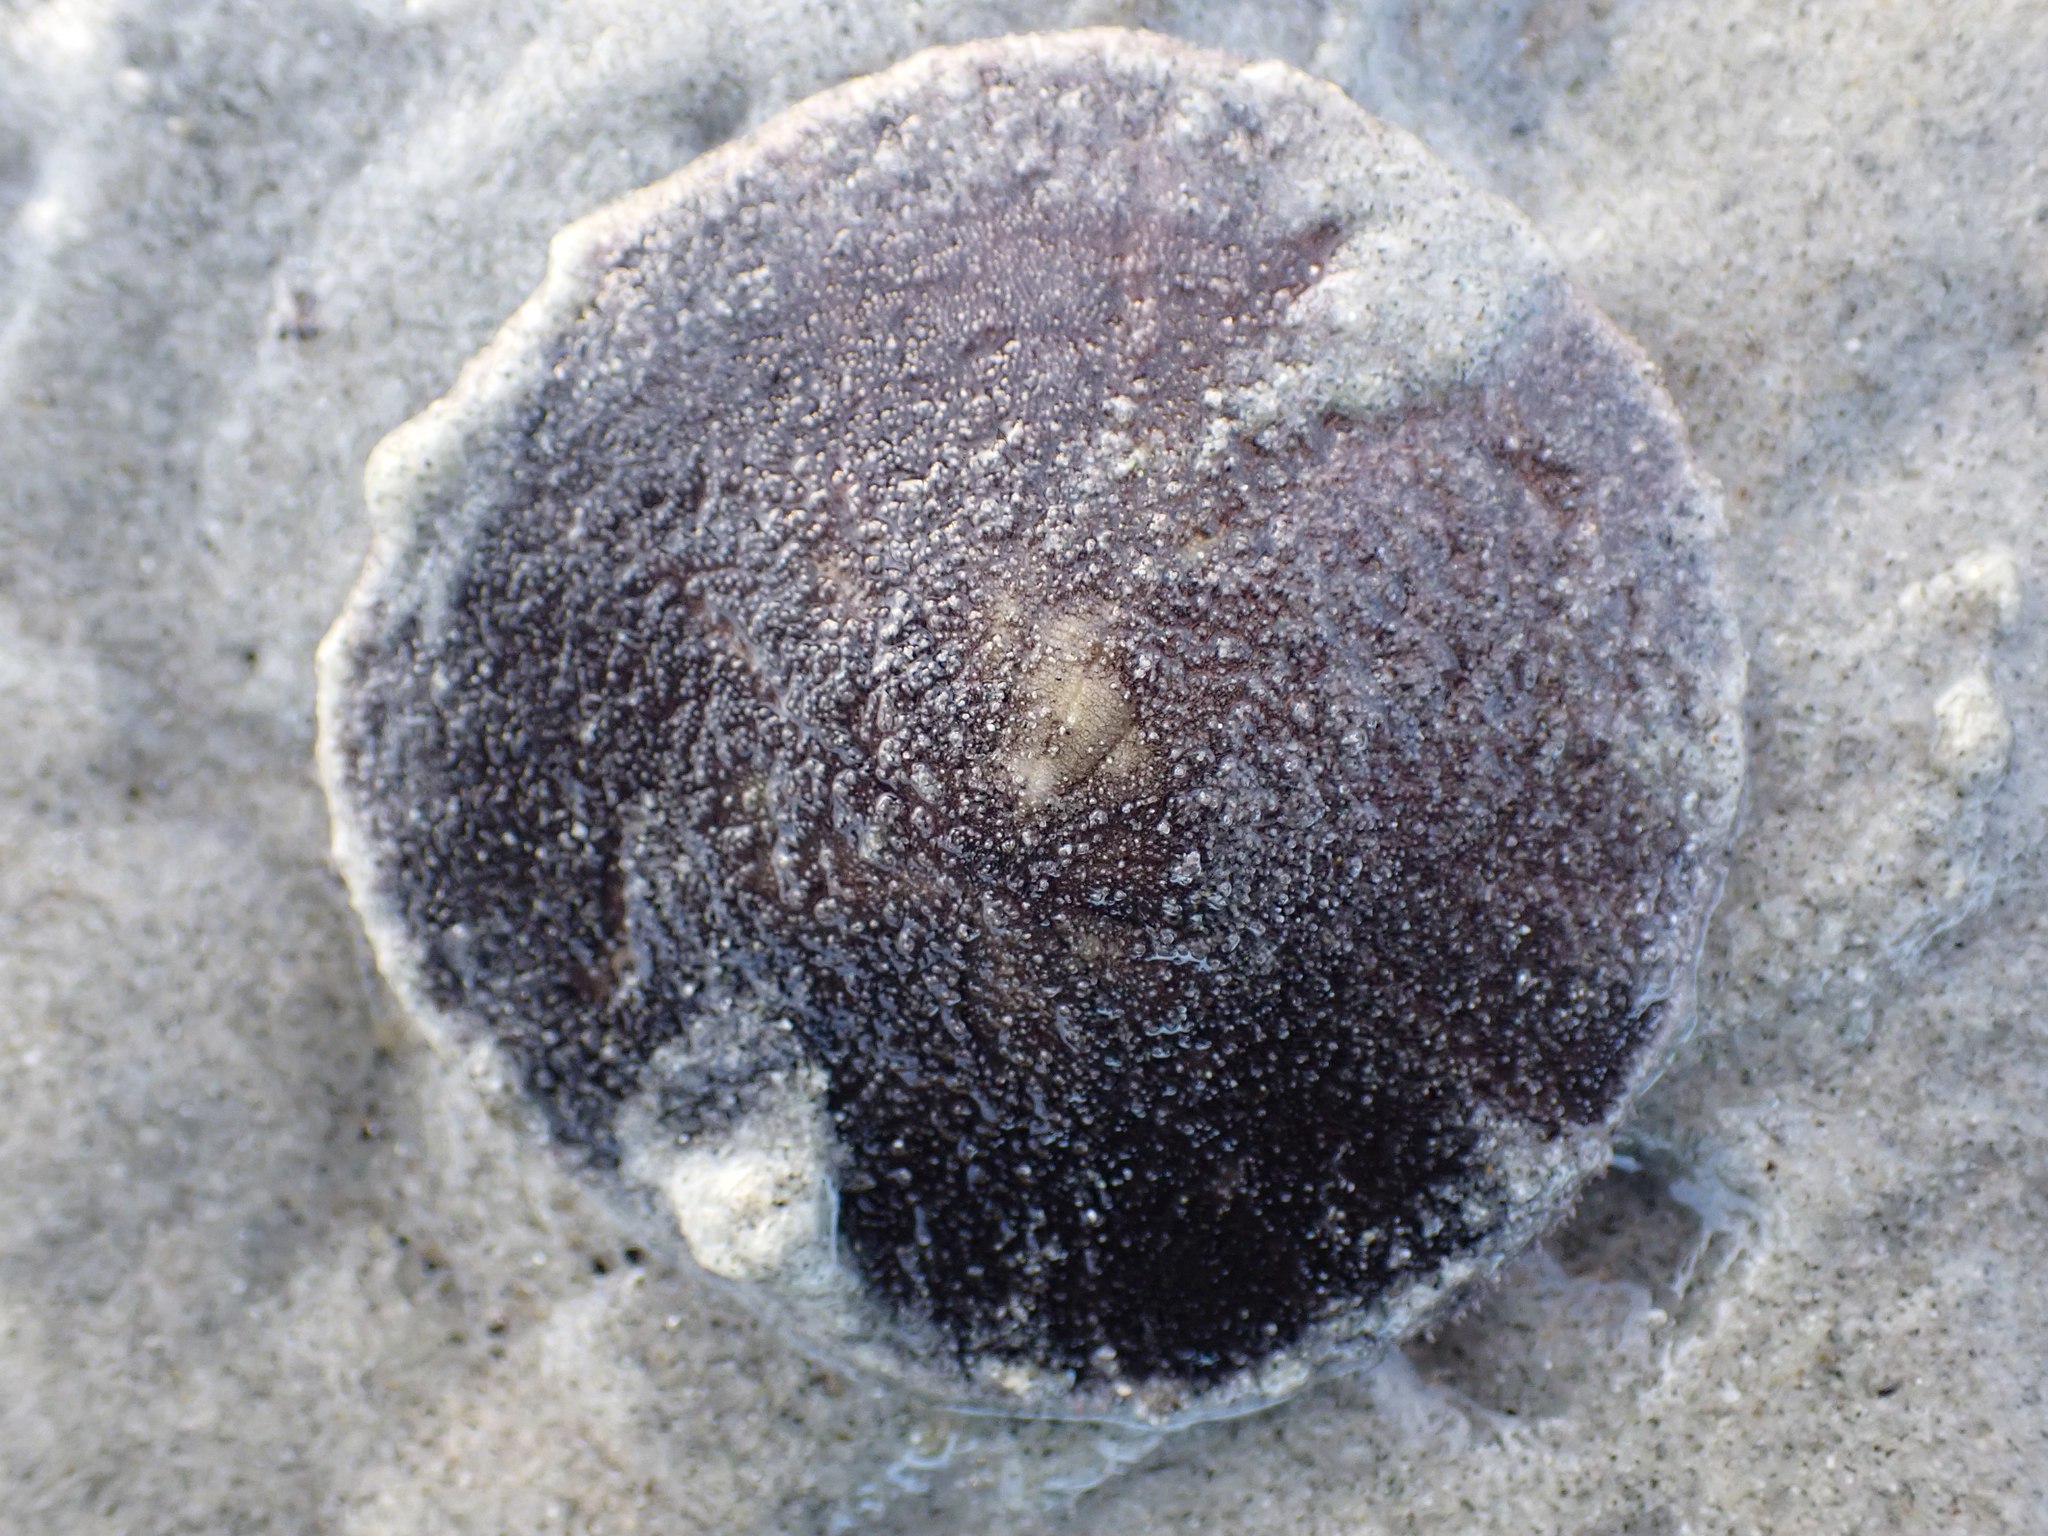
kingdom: Animalia
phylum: Echinodermata
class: Echinoidea
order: Echinolampadacea
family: Dendrasteridae
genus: Dendraster
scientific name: Dendraster excentricus
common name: Eccentric sand dollar sea urchin
